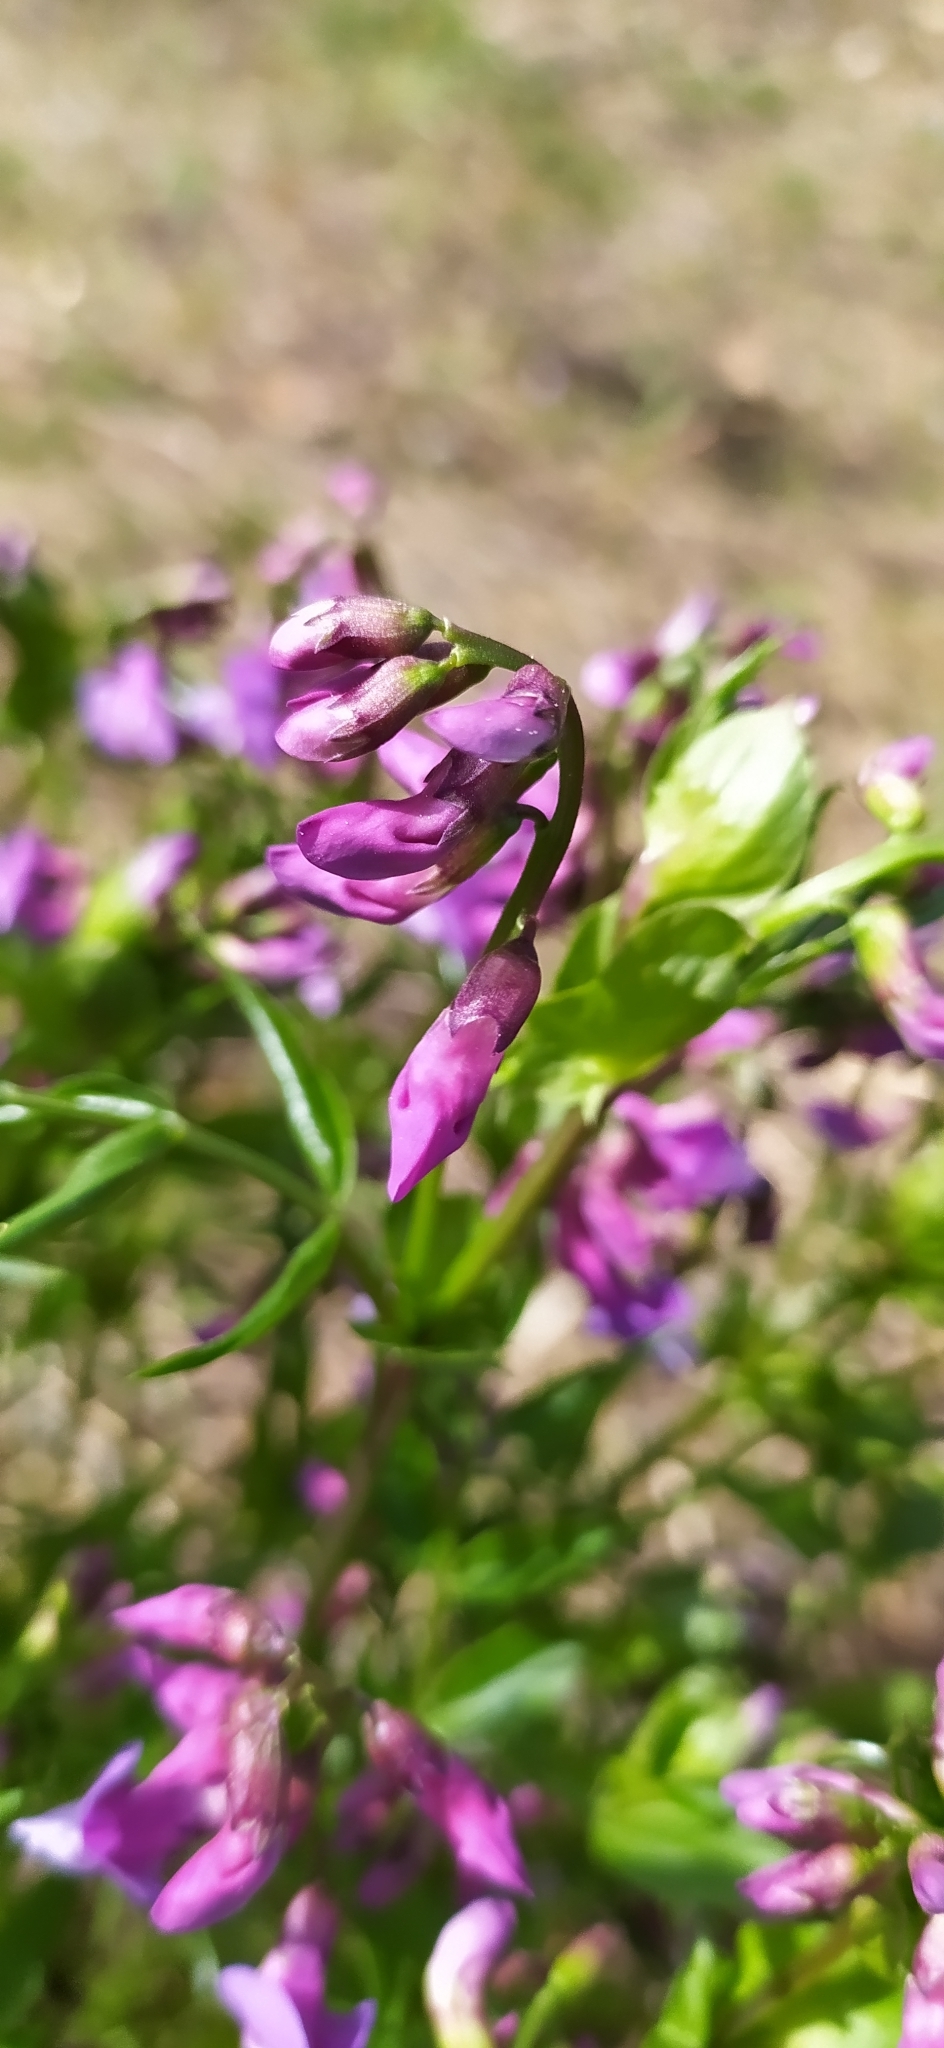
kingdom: Plantae
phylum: Tracheophyta
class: Magnoliopsida
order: Fabales
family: Fabaceae
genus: Lathyrus
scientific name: Lathyrus vernus
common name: Spring pea
